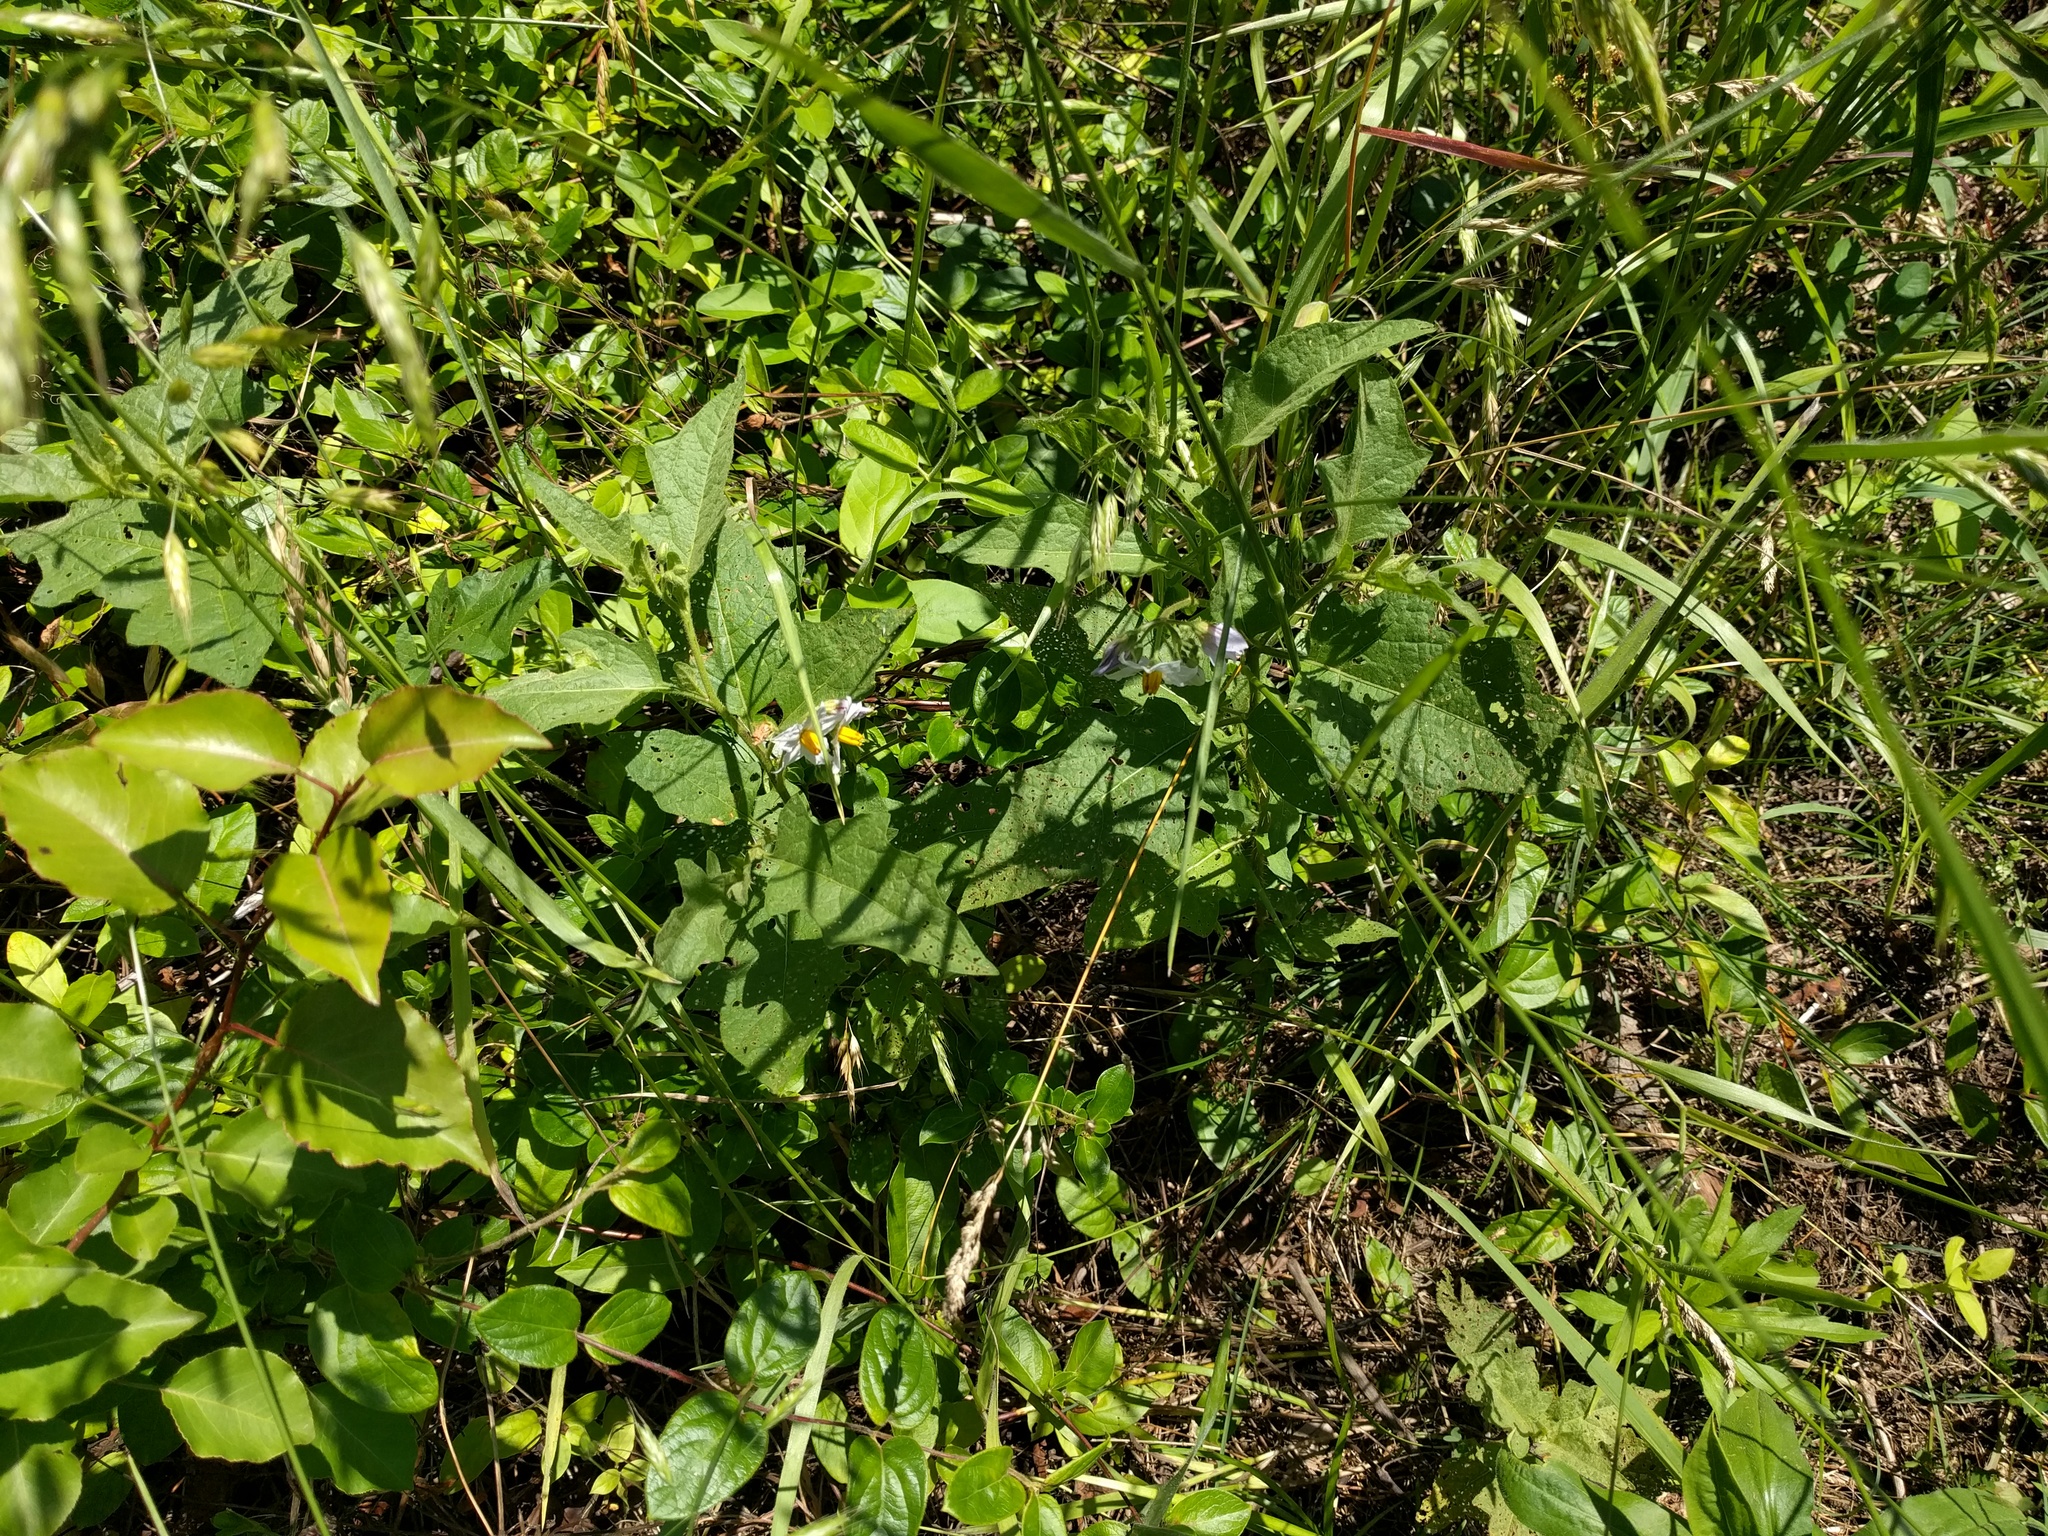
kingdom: Plantae
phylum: Tracheophyta
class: Magnoliopsida
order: Solanales
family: Solanaceae
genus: Solanum
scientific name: Solanum carolinense
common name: Horse-nettle
